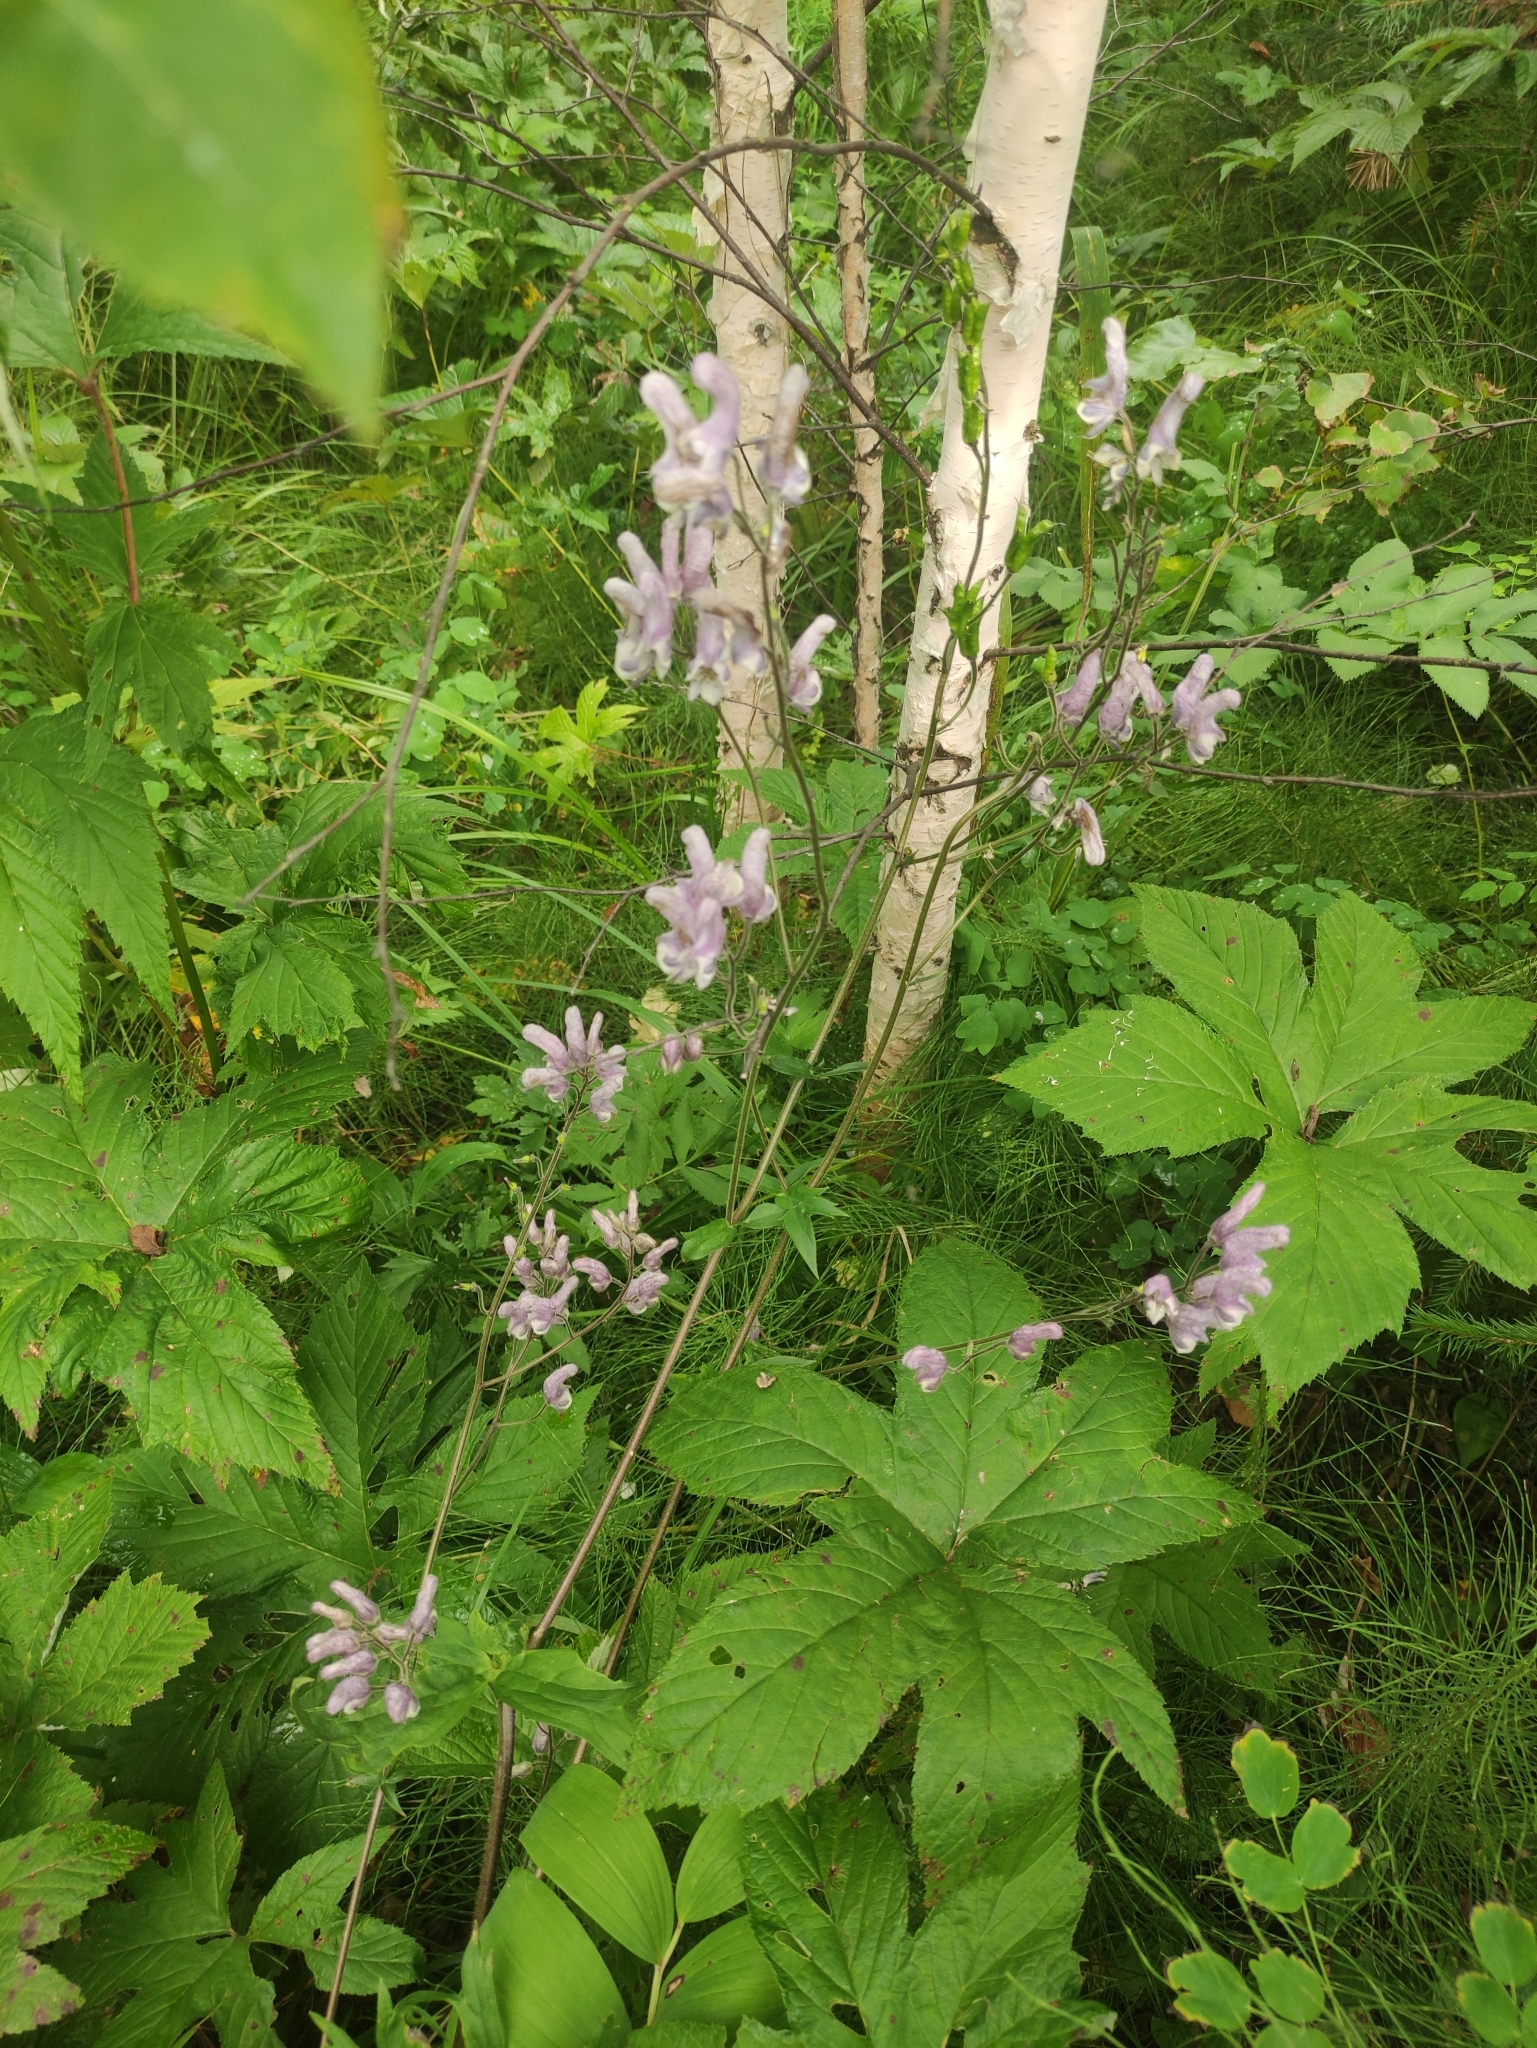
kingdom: Plantae
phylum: Tracheophyta
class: Magnoliopsida
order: Ranunculales
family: Ranunculaceae
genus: Aconitum
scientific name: Aconitum septentrionale
